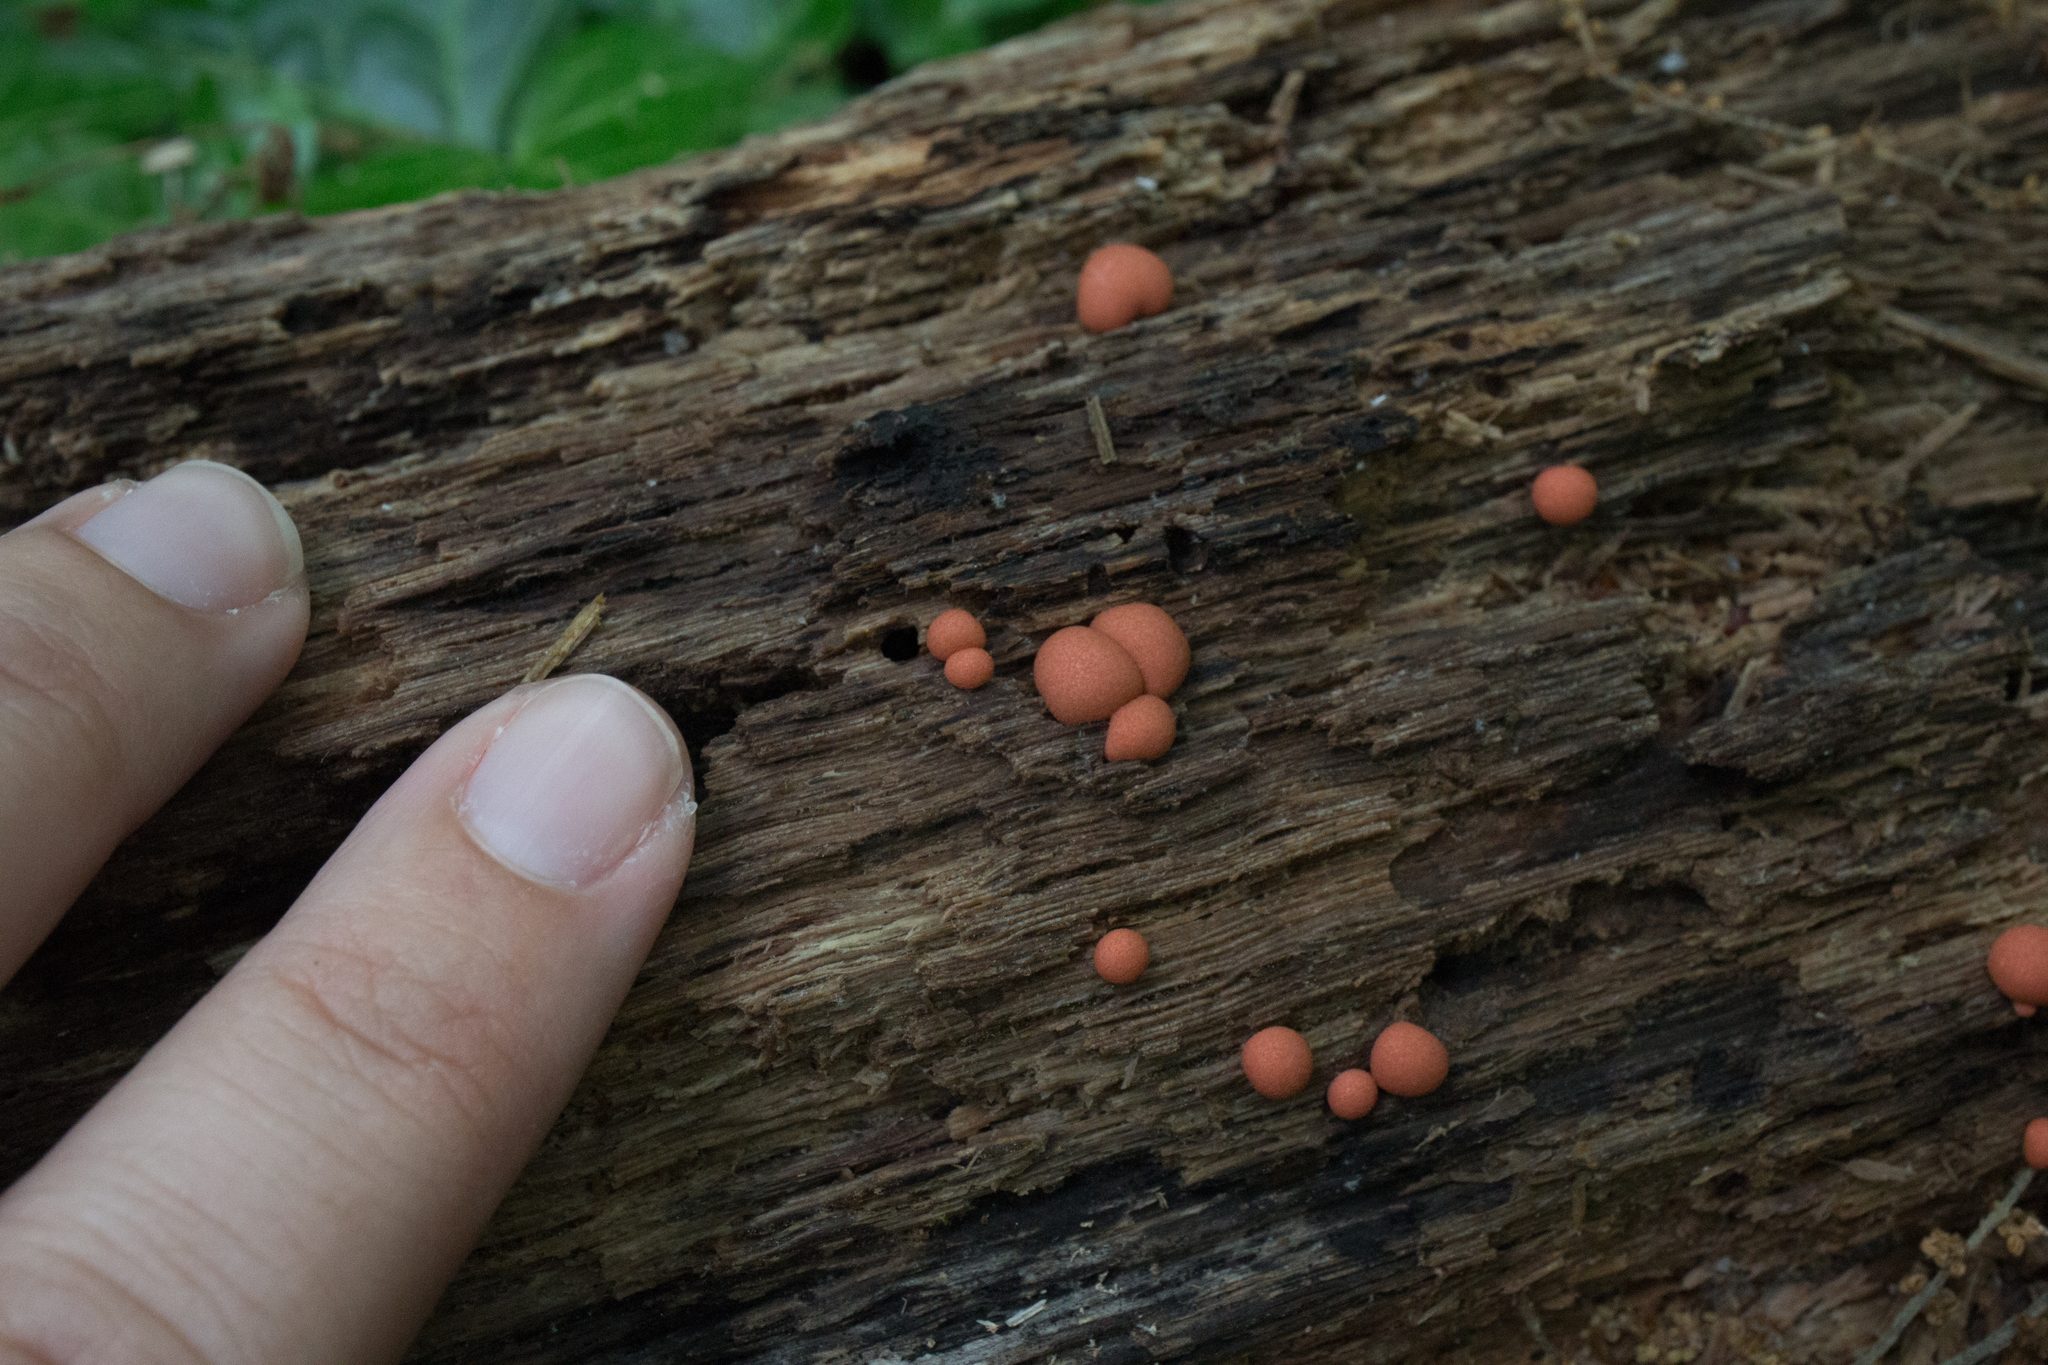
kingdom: Protozoa
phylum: Mycetozoa
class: Myxomycetes
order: Cribrariales
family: Tubiferaceae
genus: Lycogala
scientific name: Lycogala epidendrum
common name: Wolf's milk
